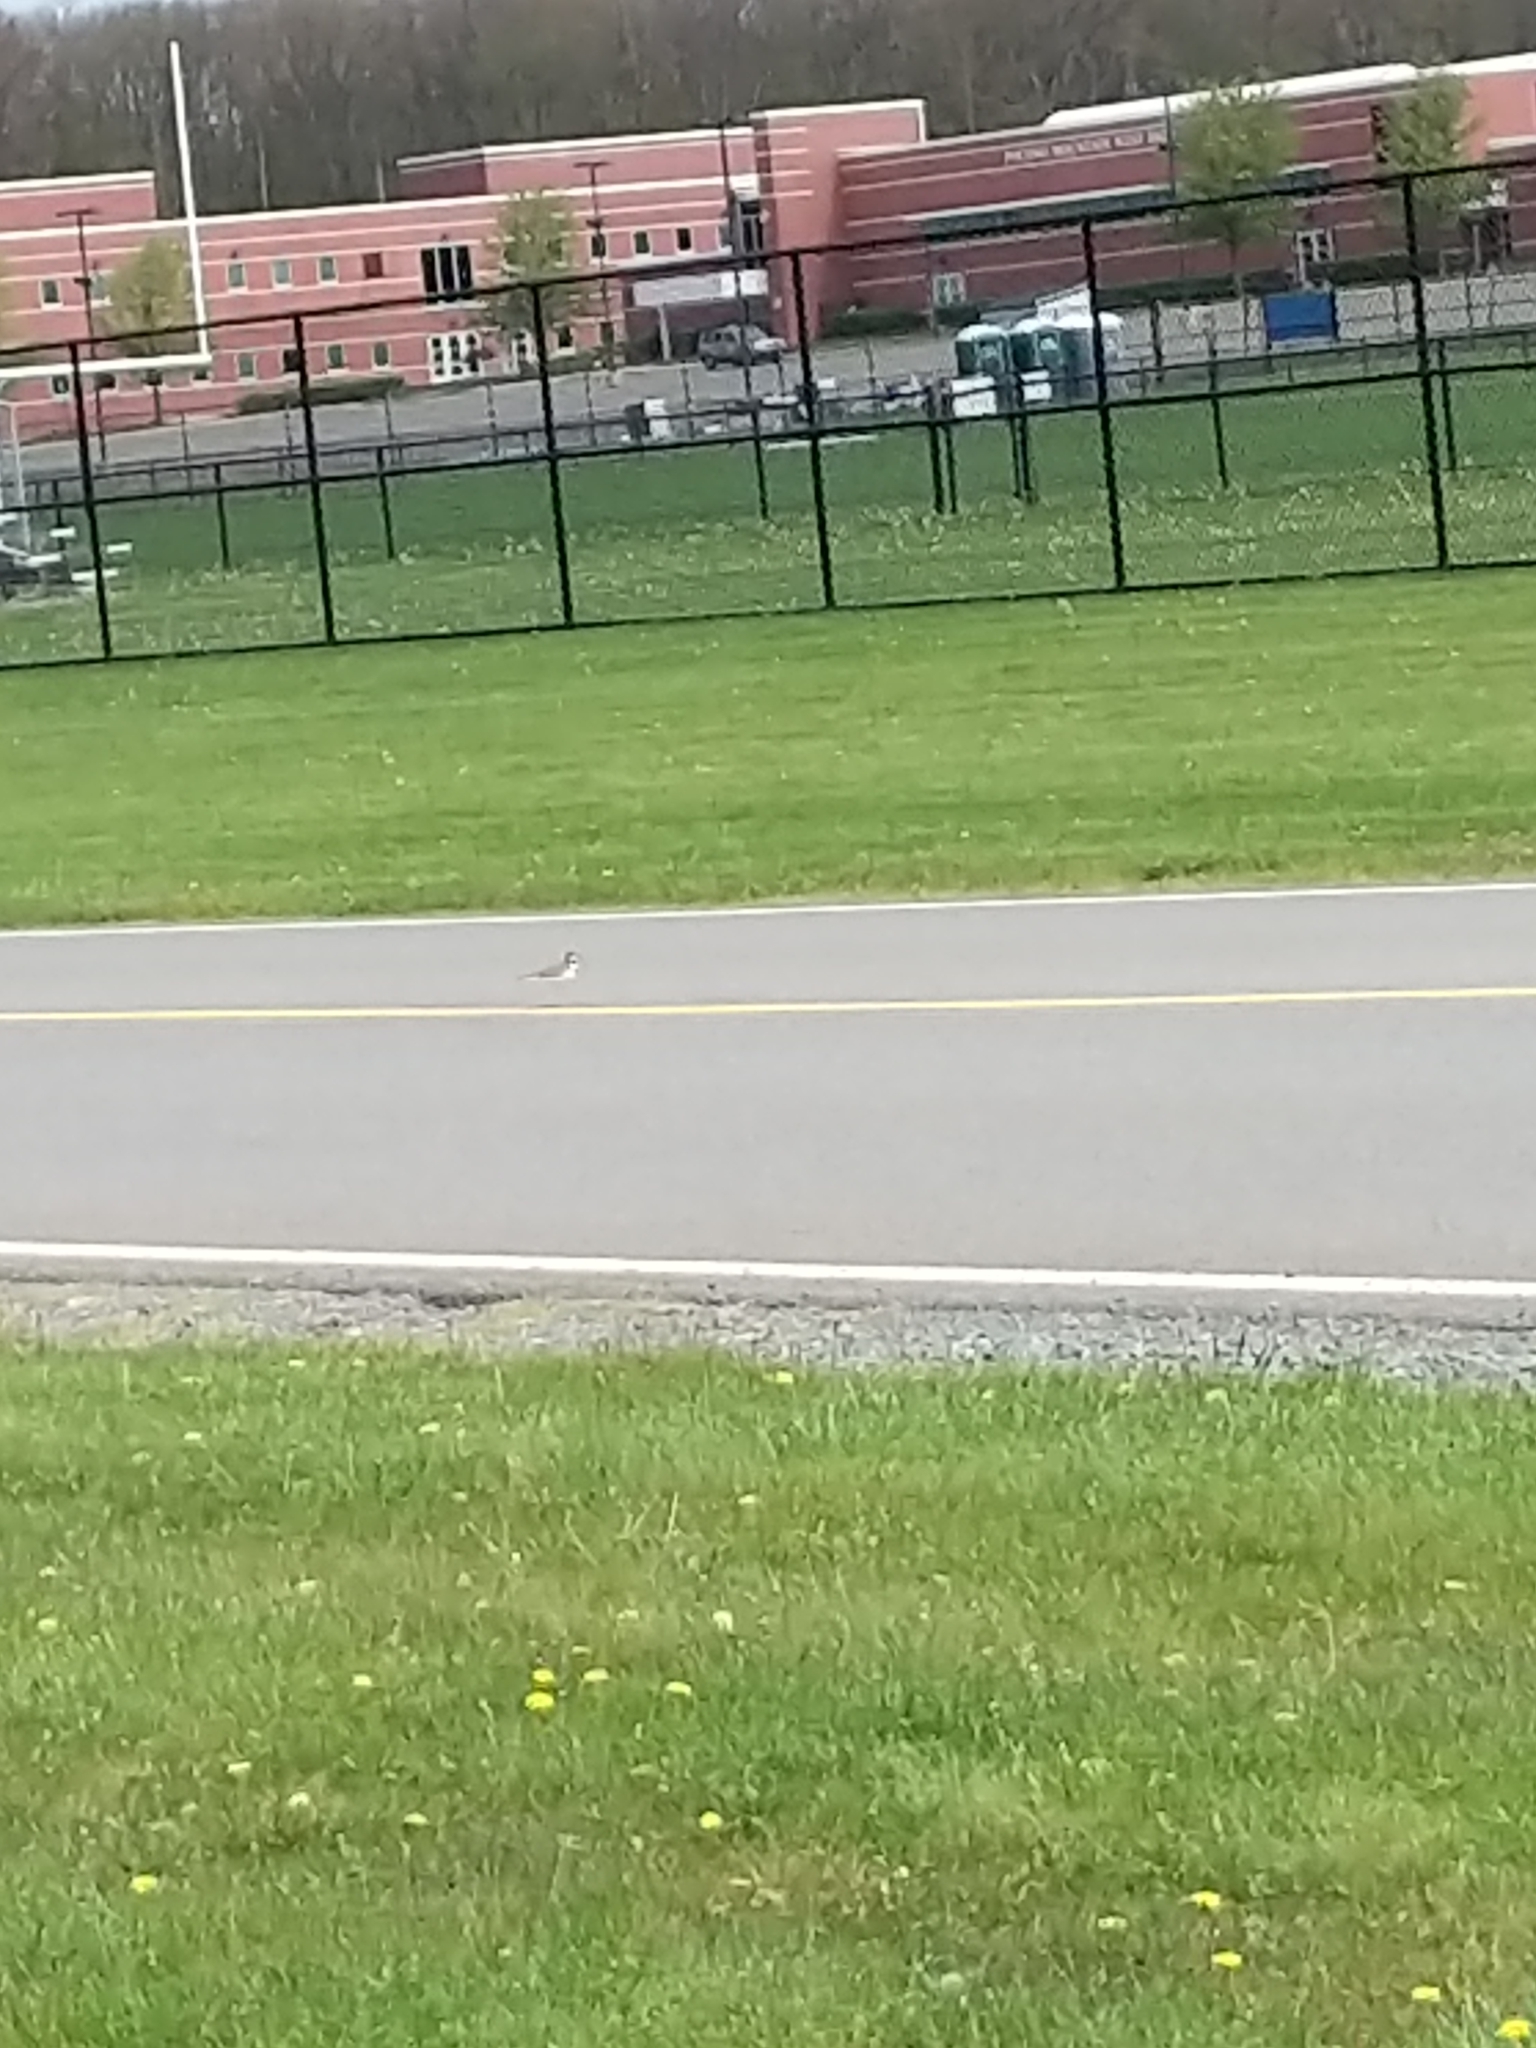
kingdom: Animalia
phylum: Chordata
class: Aves
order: Charadriiformes
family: Charadriidae
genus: Charadrius
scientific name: Charadrius vociferus
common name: Killdeer
